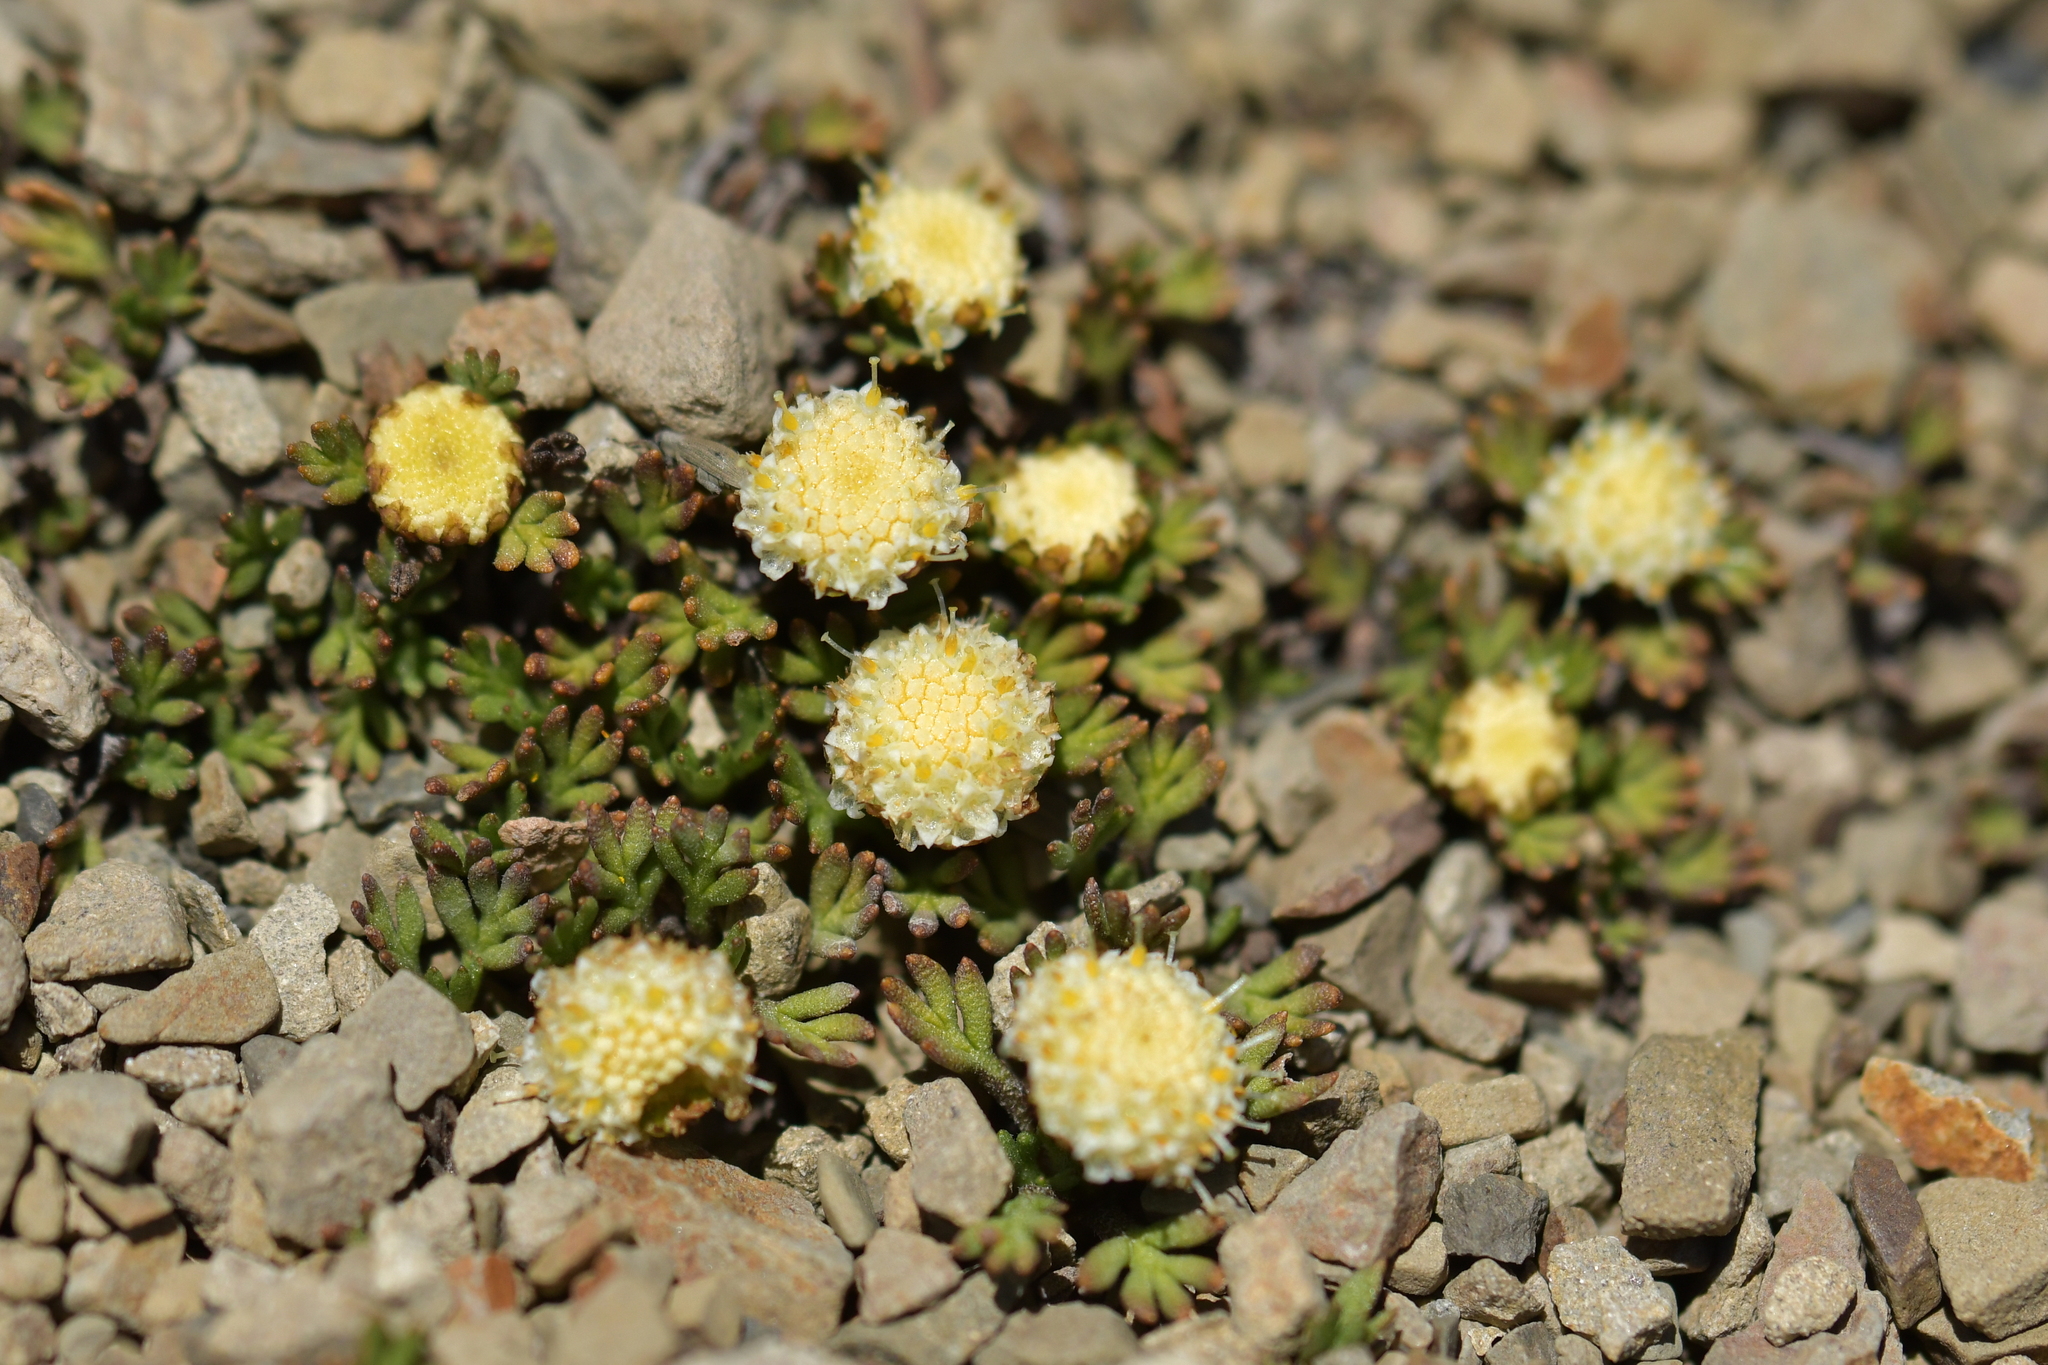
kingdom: Plantae
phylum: Tracheophyta
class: Magnoliopsida
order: Asterales
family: Asteraceae
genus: Leptinella
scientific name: Leptinella pyrethrifolia
